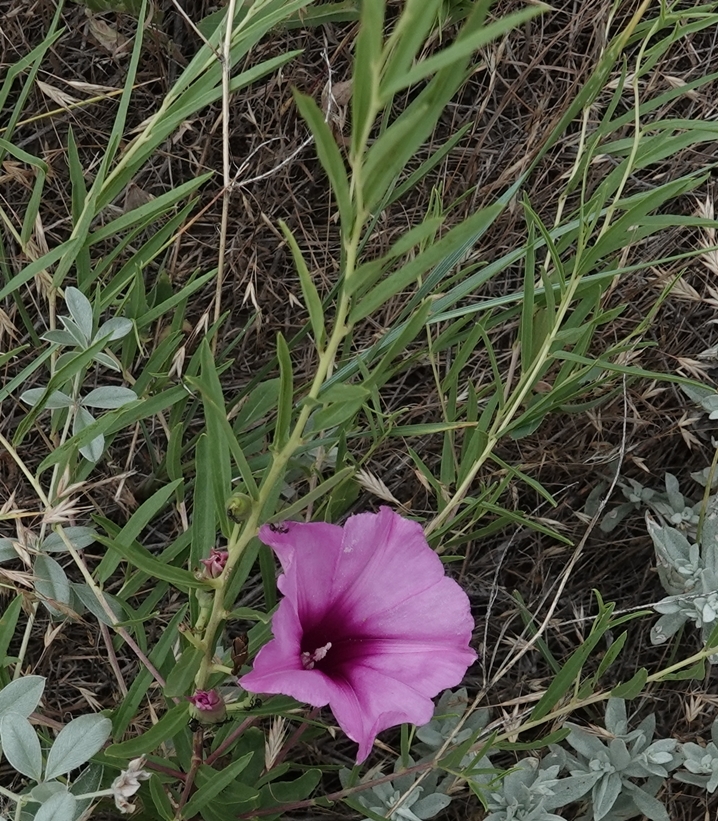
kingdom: Plantae
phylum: Tracheophyta
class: Magnoliopsida
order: Solanales
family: Convolvulaceae
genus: Ipomoea
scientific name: Ipomoea leptophylla
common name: Bush moonflower
